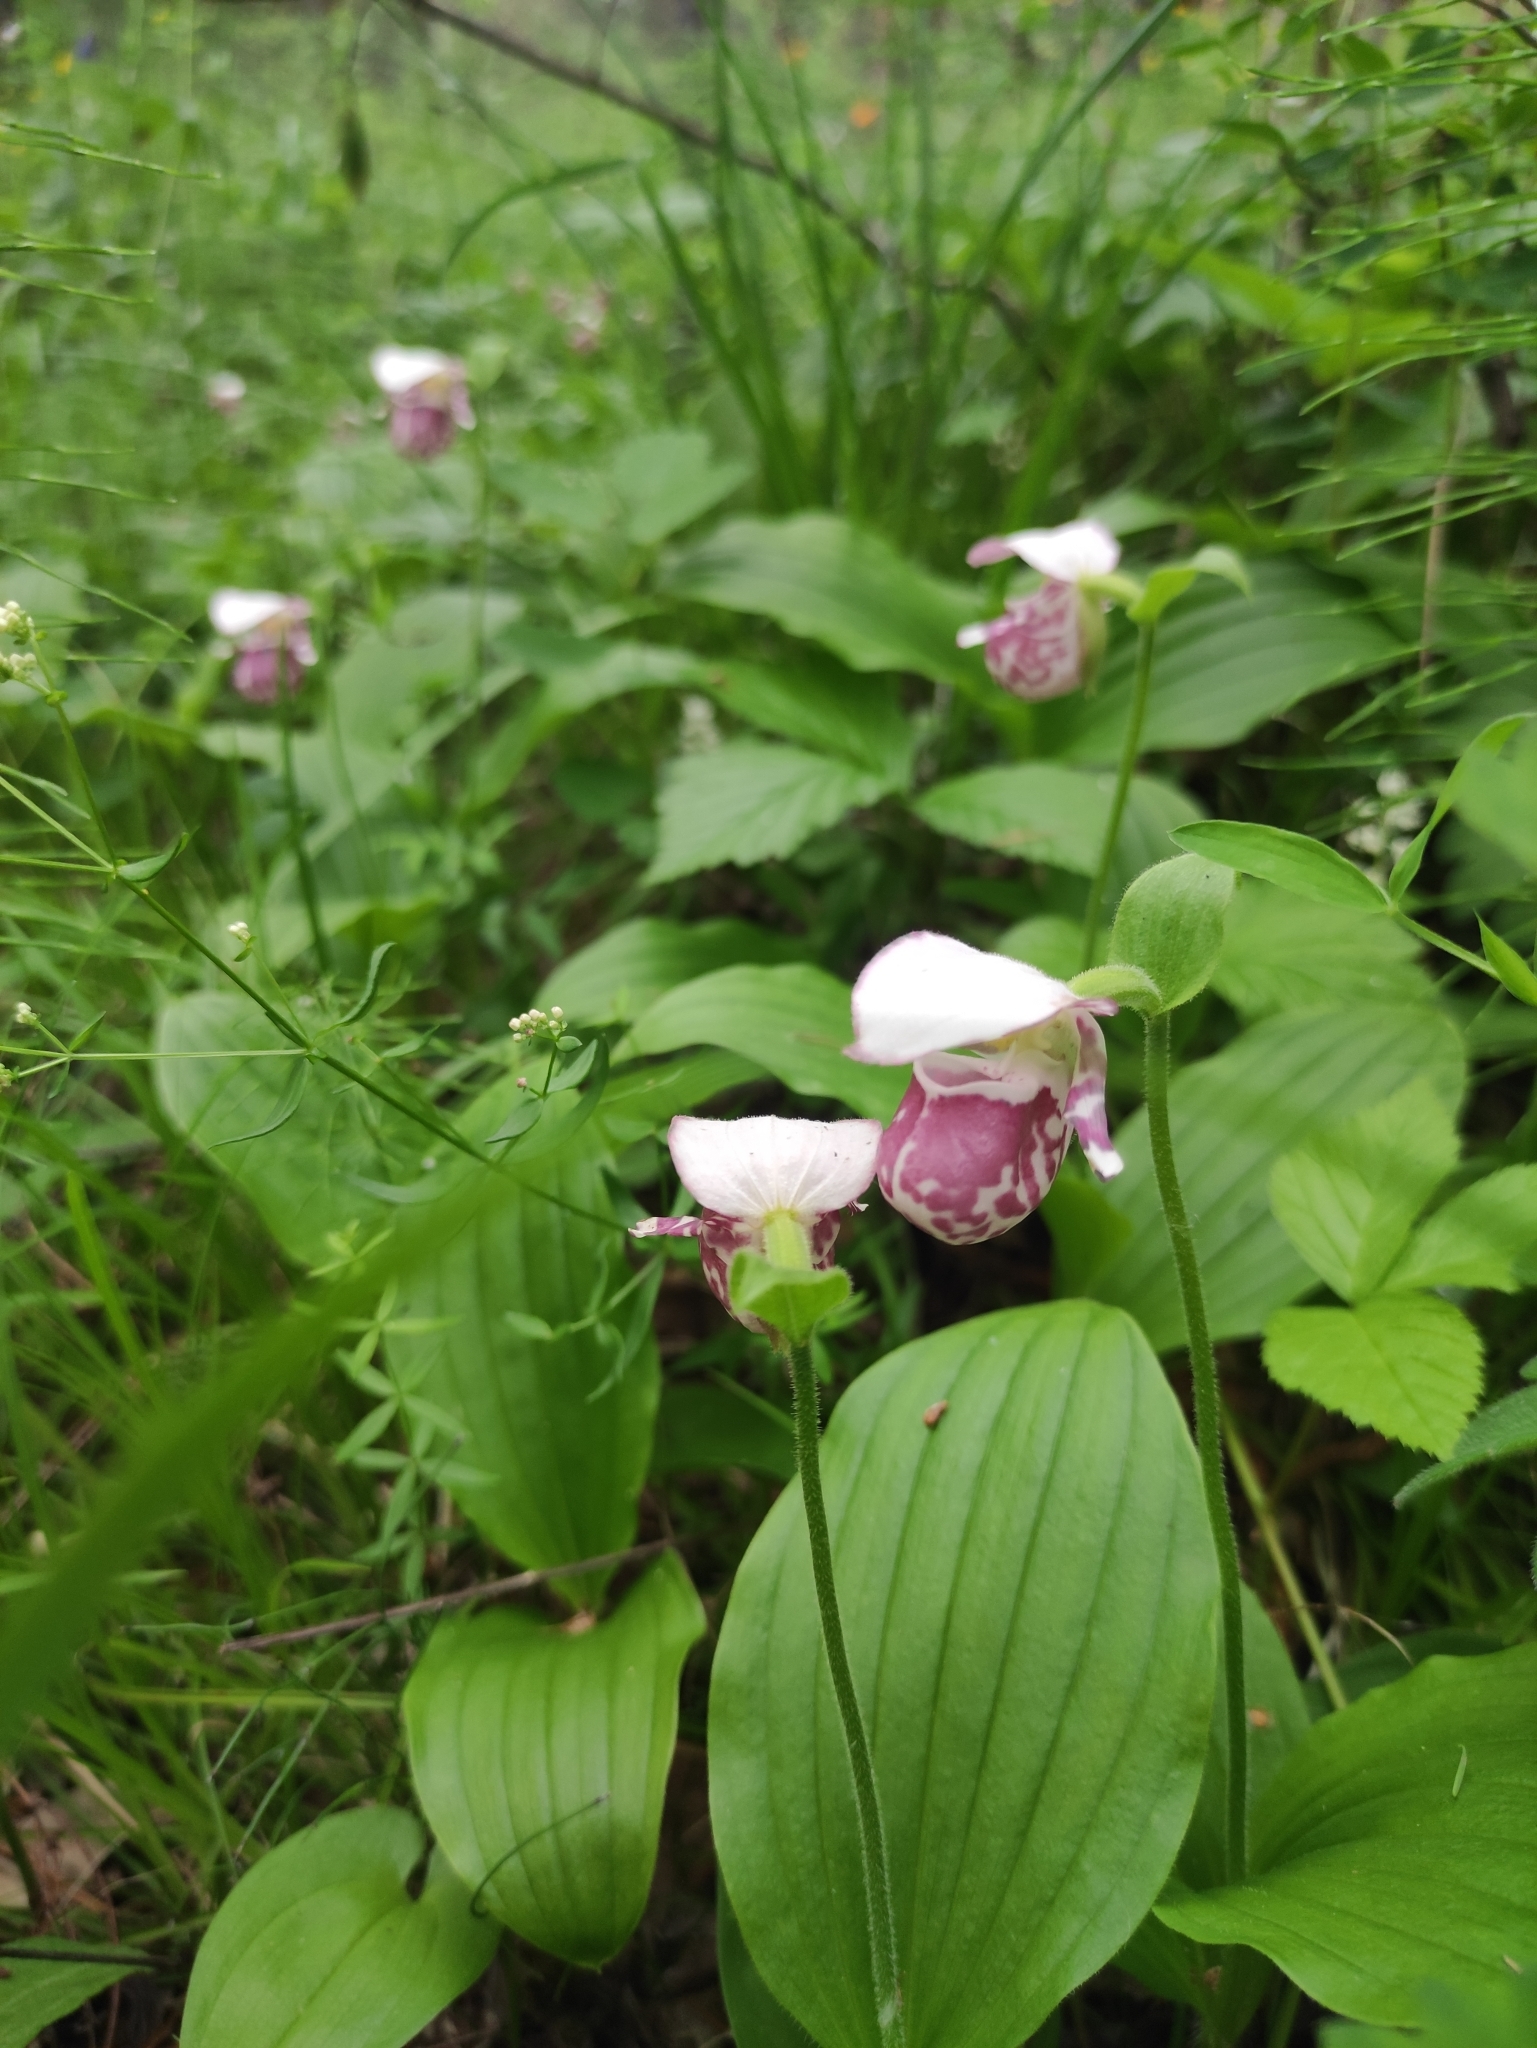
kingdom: Plantae
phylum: Tracheophyta
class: Liliopsida
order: Asparagales
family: Orchidaceae
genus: Cypripedium
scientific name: Cypripedium guttatum
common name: Pink lady slipper
